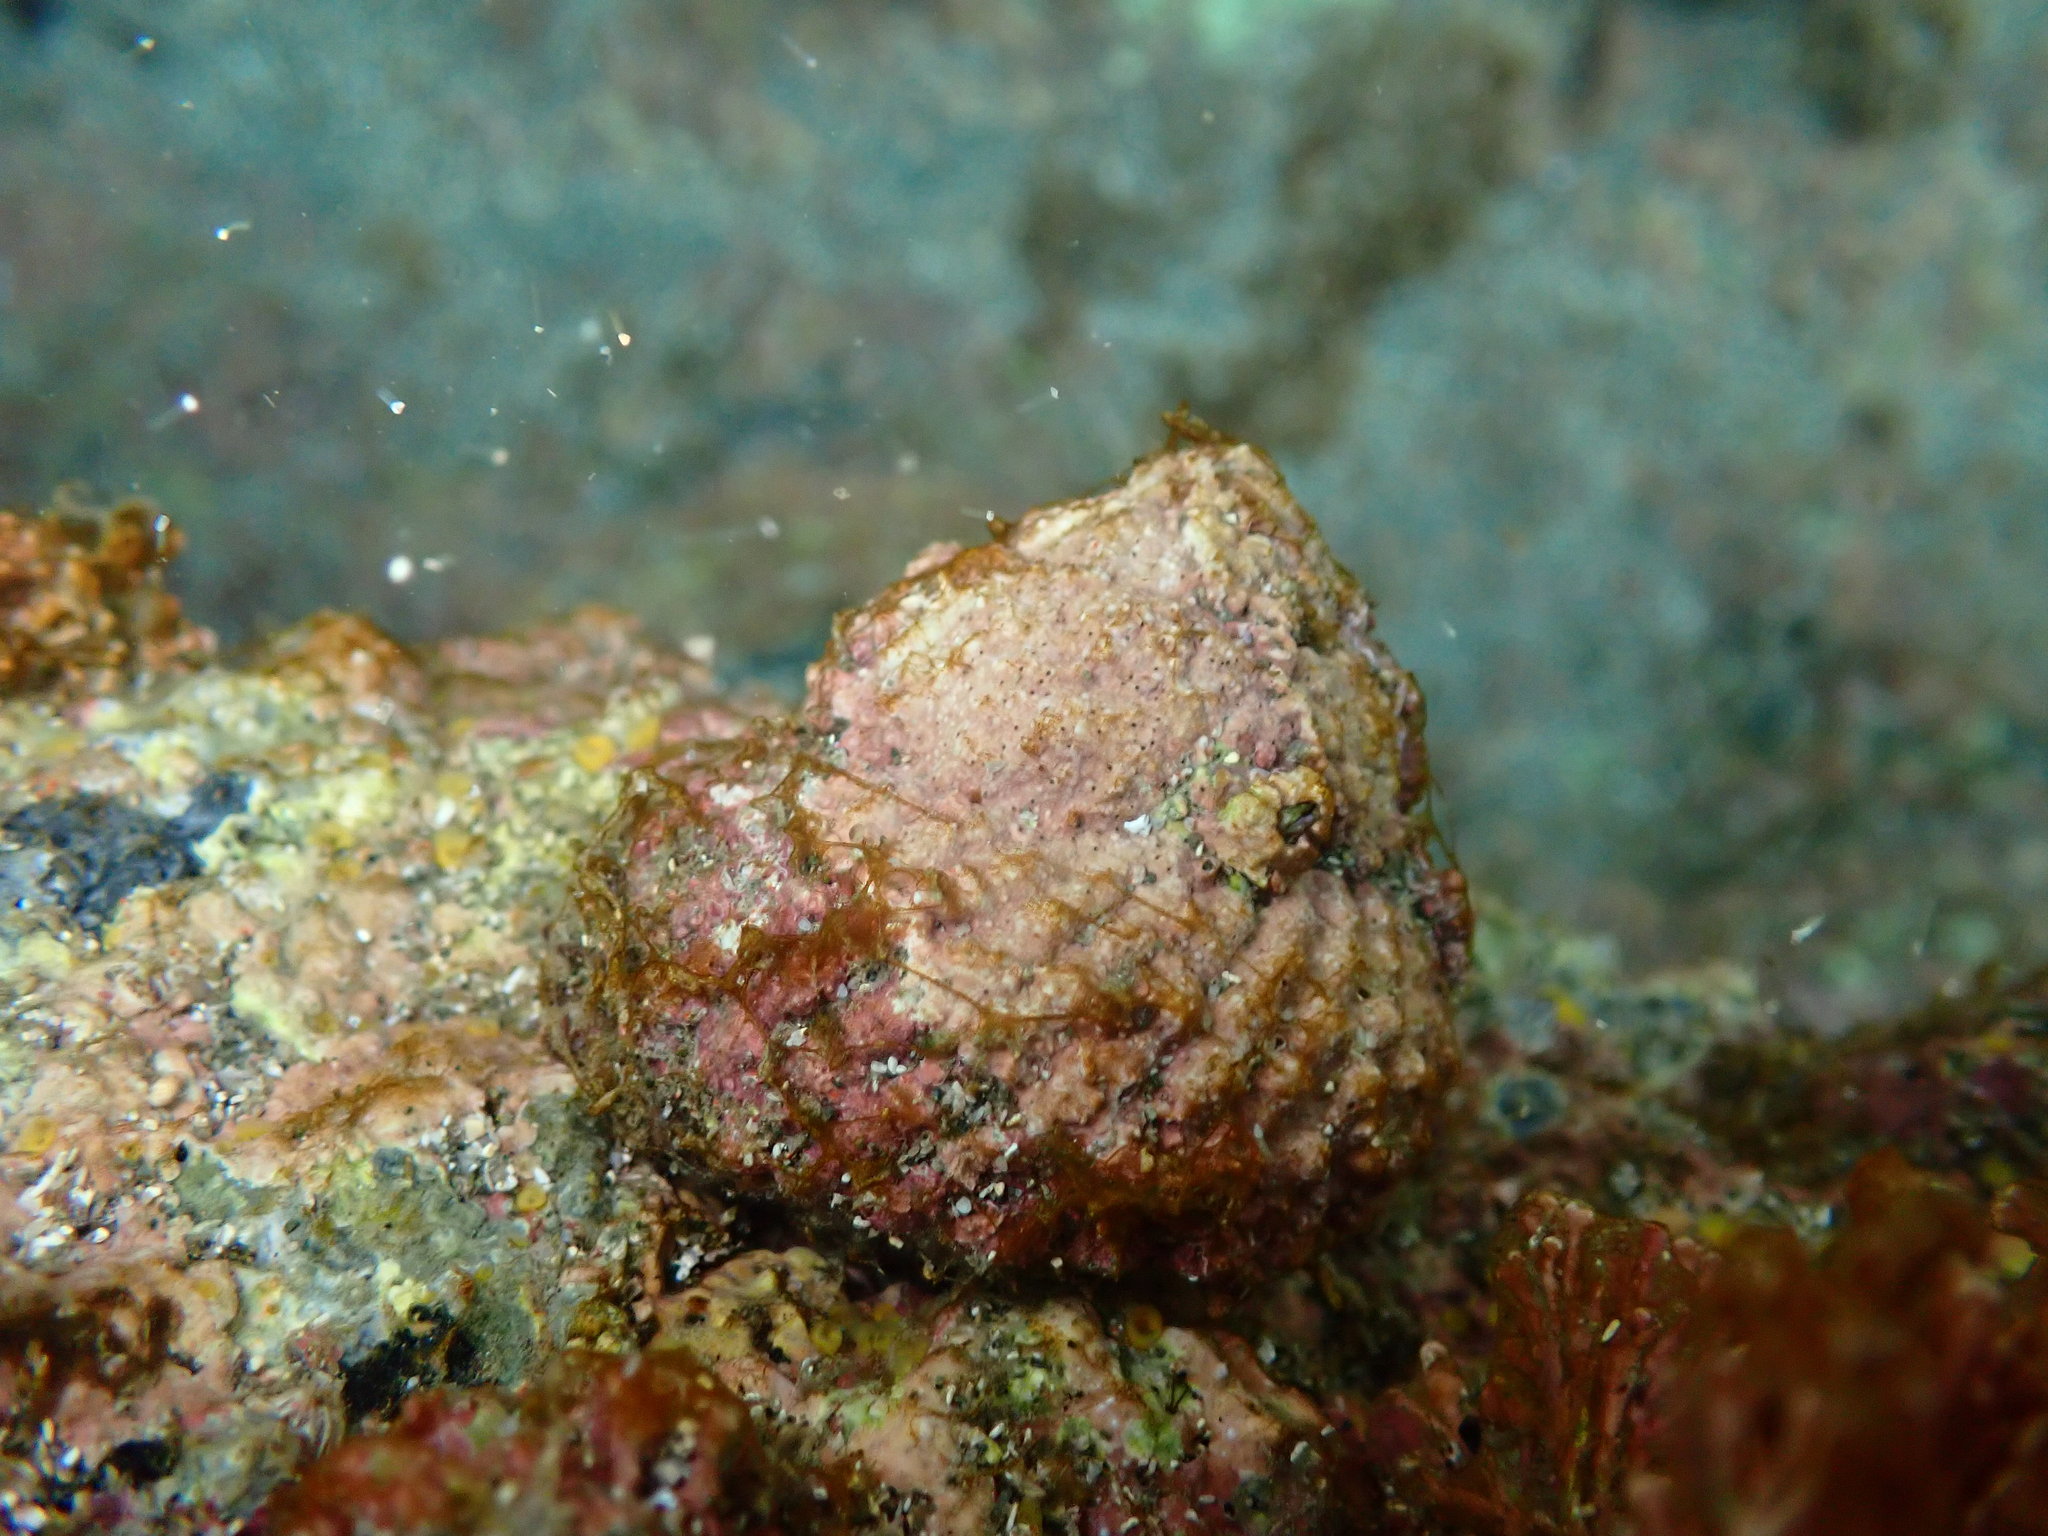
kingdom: Animalia
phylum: Mollusca
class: Gastropoda
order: Trochida
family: Turbinidae
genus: Cookia
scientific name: Cookia sulcata
